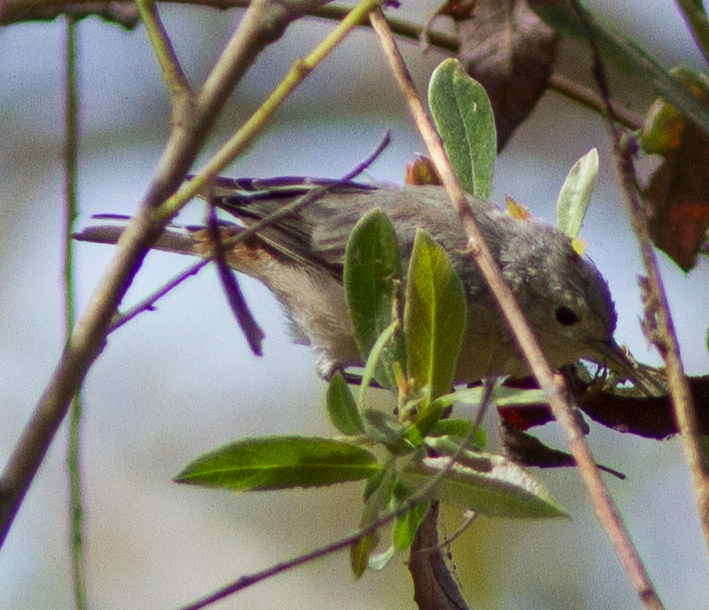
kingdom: Animalia
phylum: Chordata
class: Aves
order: Passeriformes
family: Parulidae
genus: Leiothlypis
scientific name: Leiothlypis luciae
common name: Lucy's warbler
